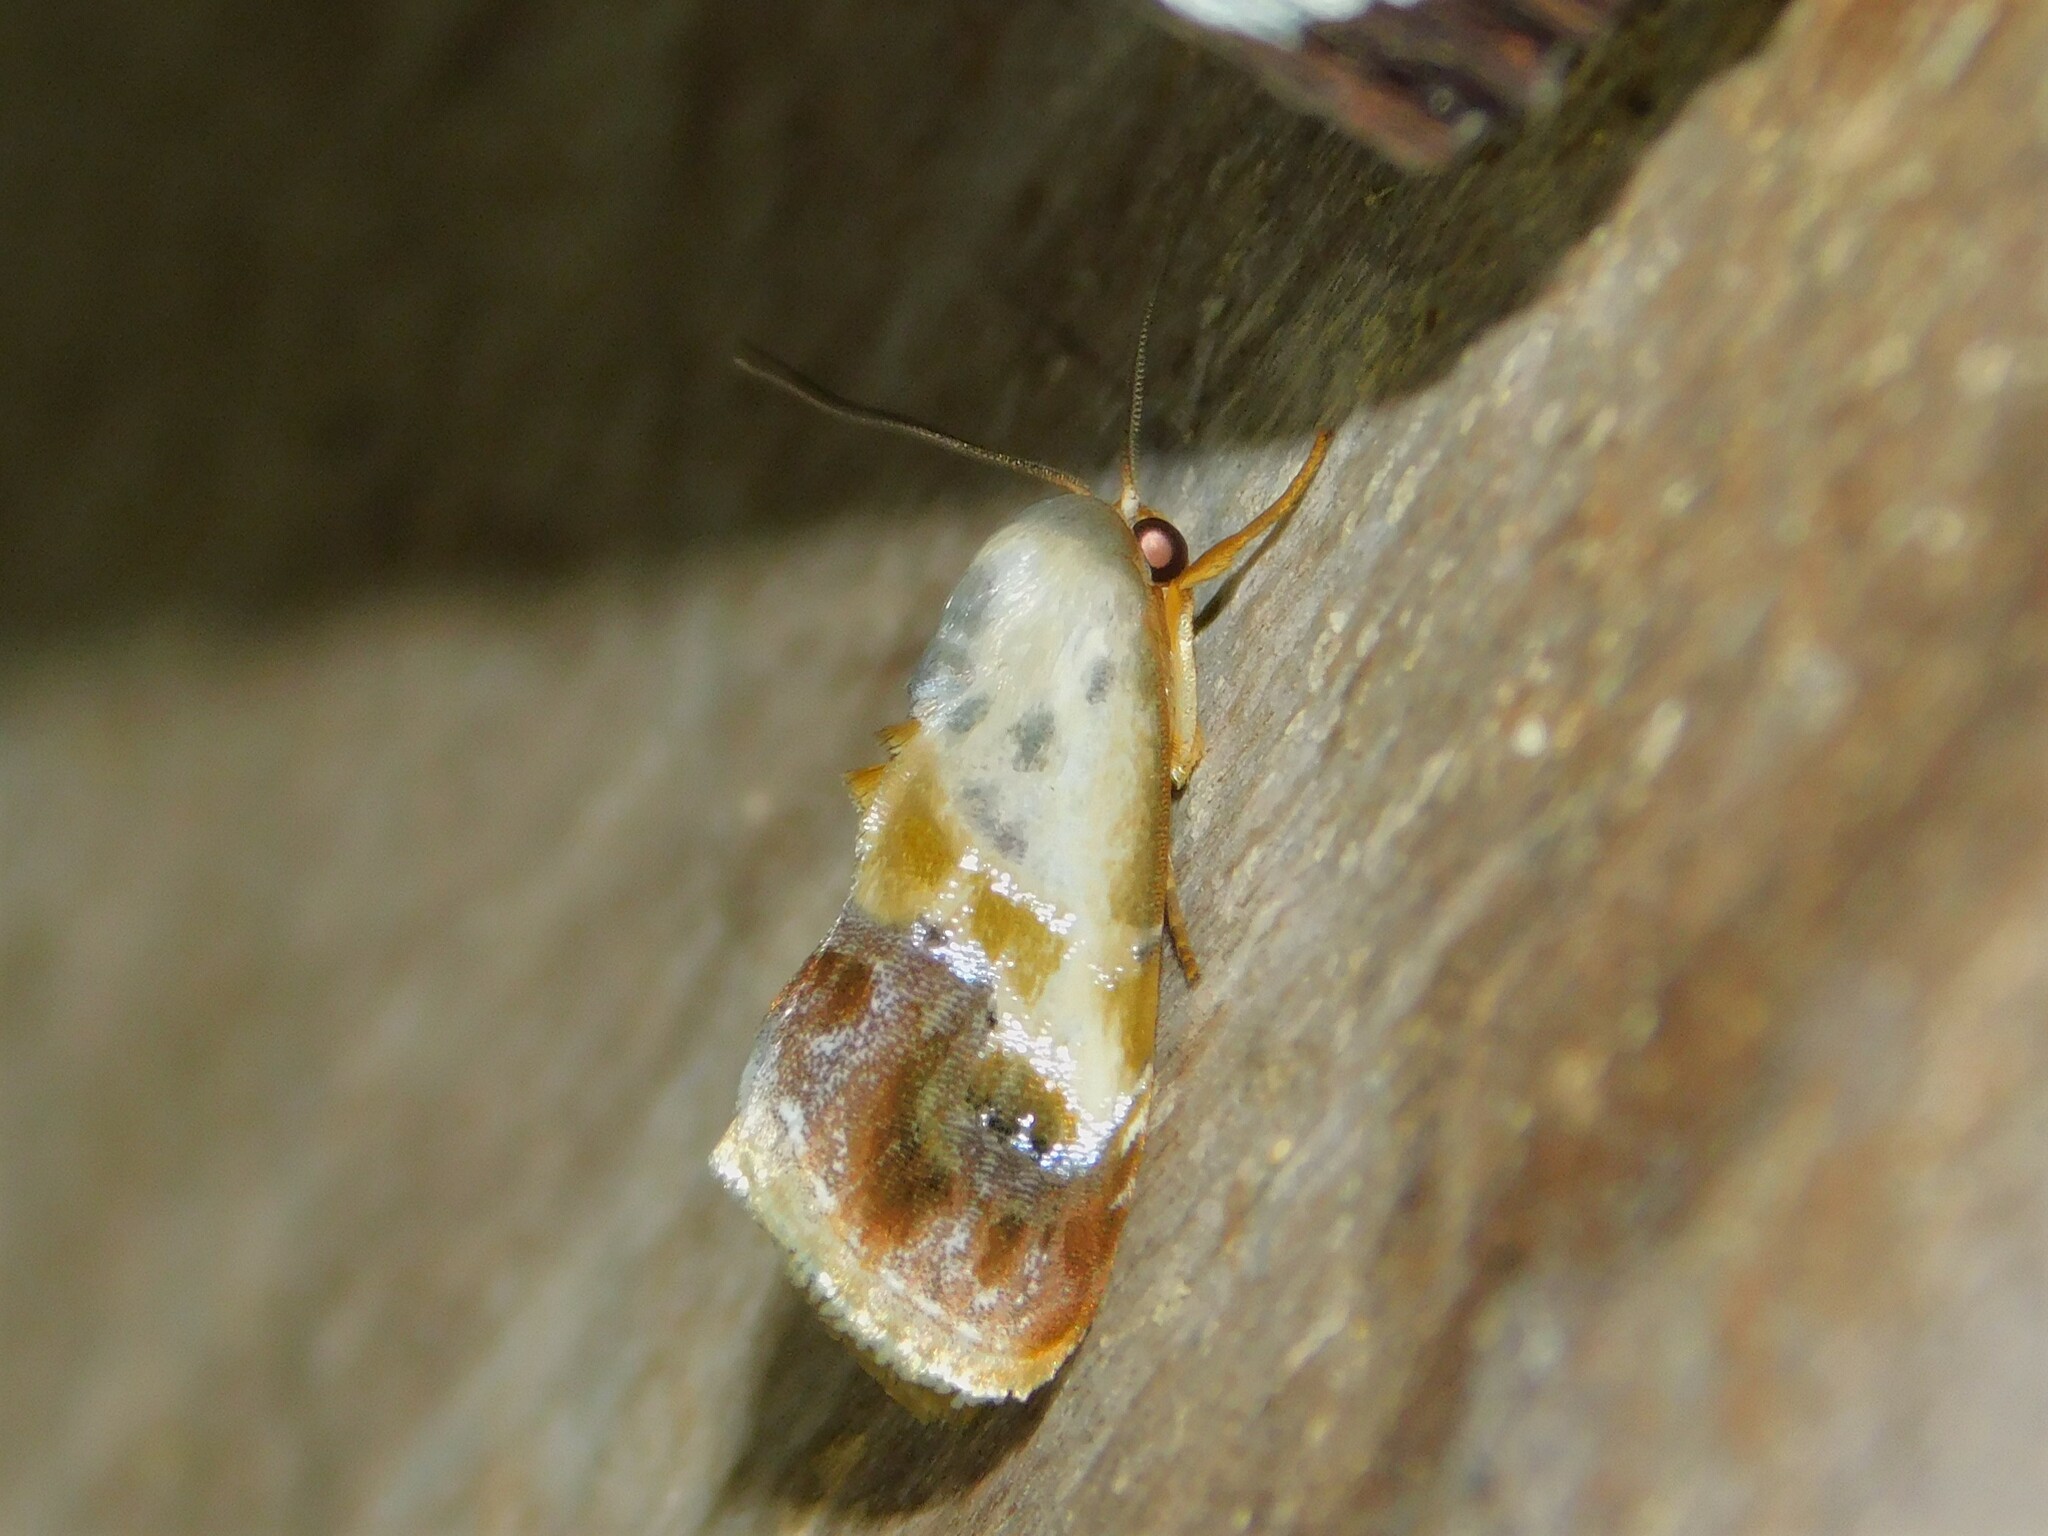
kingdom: Animalia
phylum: Arthropoda
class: Insecta
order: Lepidoptera
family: Nolidae
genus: Negeta
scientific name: Negeta purpurascens
